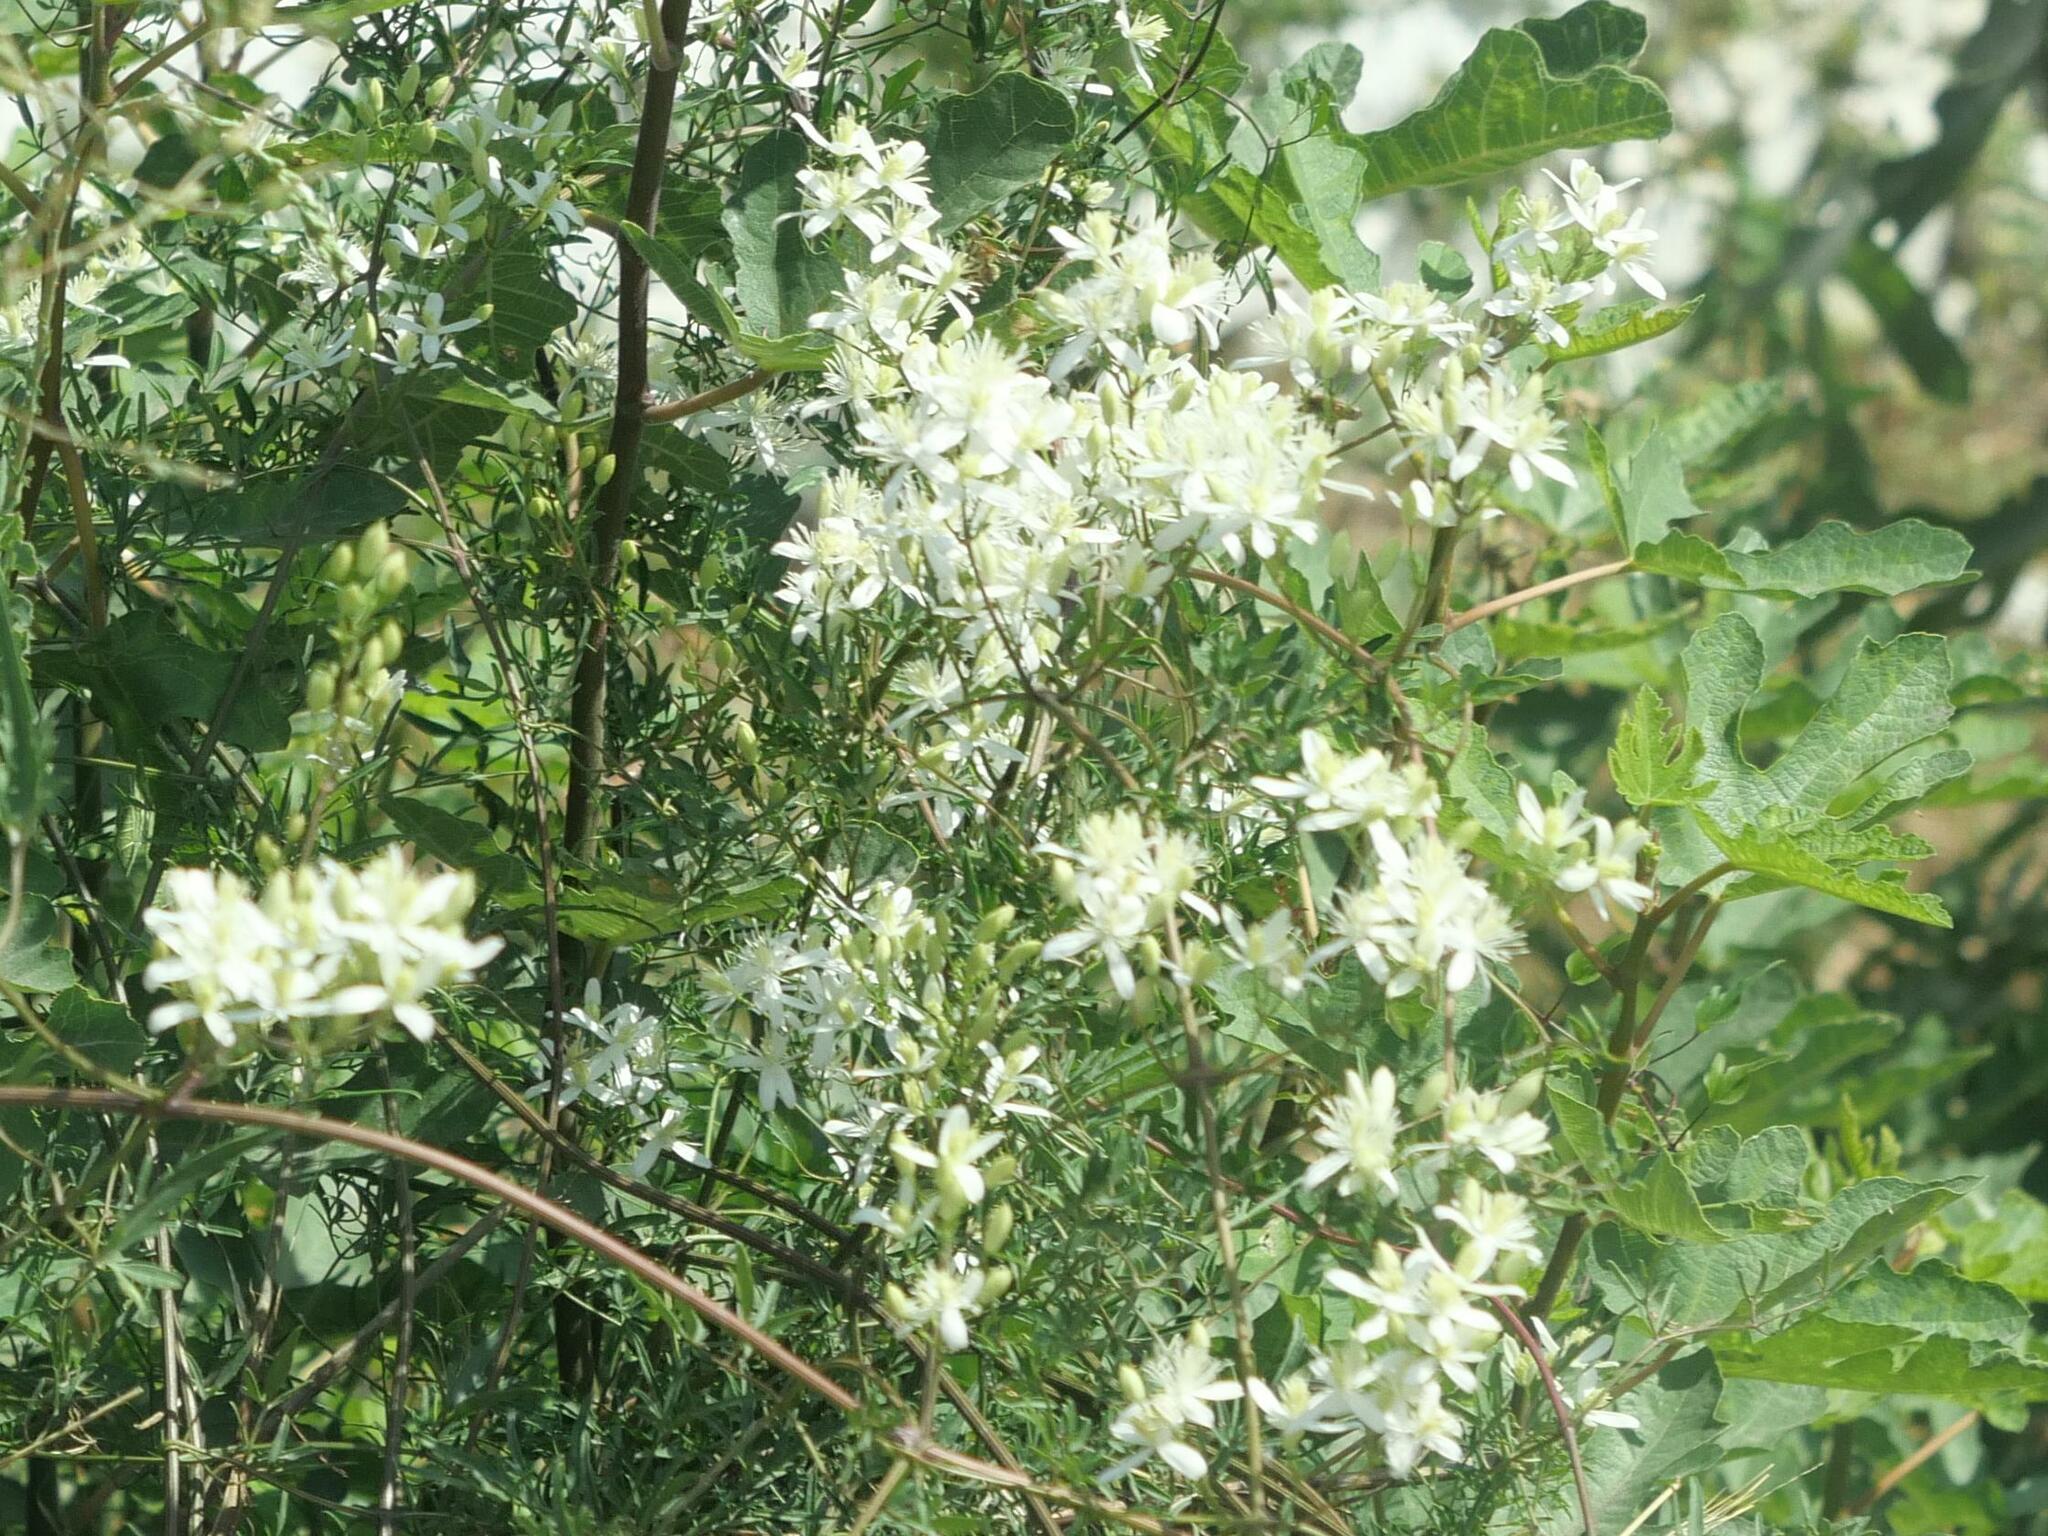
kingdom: Plantae
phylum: Tracheophyta
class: Magnoliopsida
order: Ranunculales
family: Ranunculaceae
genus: Clematis
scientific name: Clematis flammula
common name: Virgin's-bower
